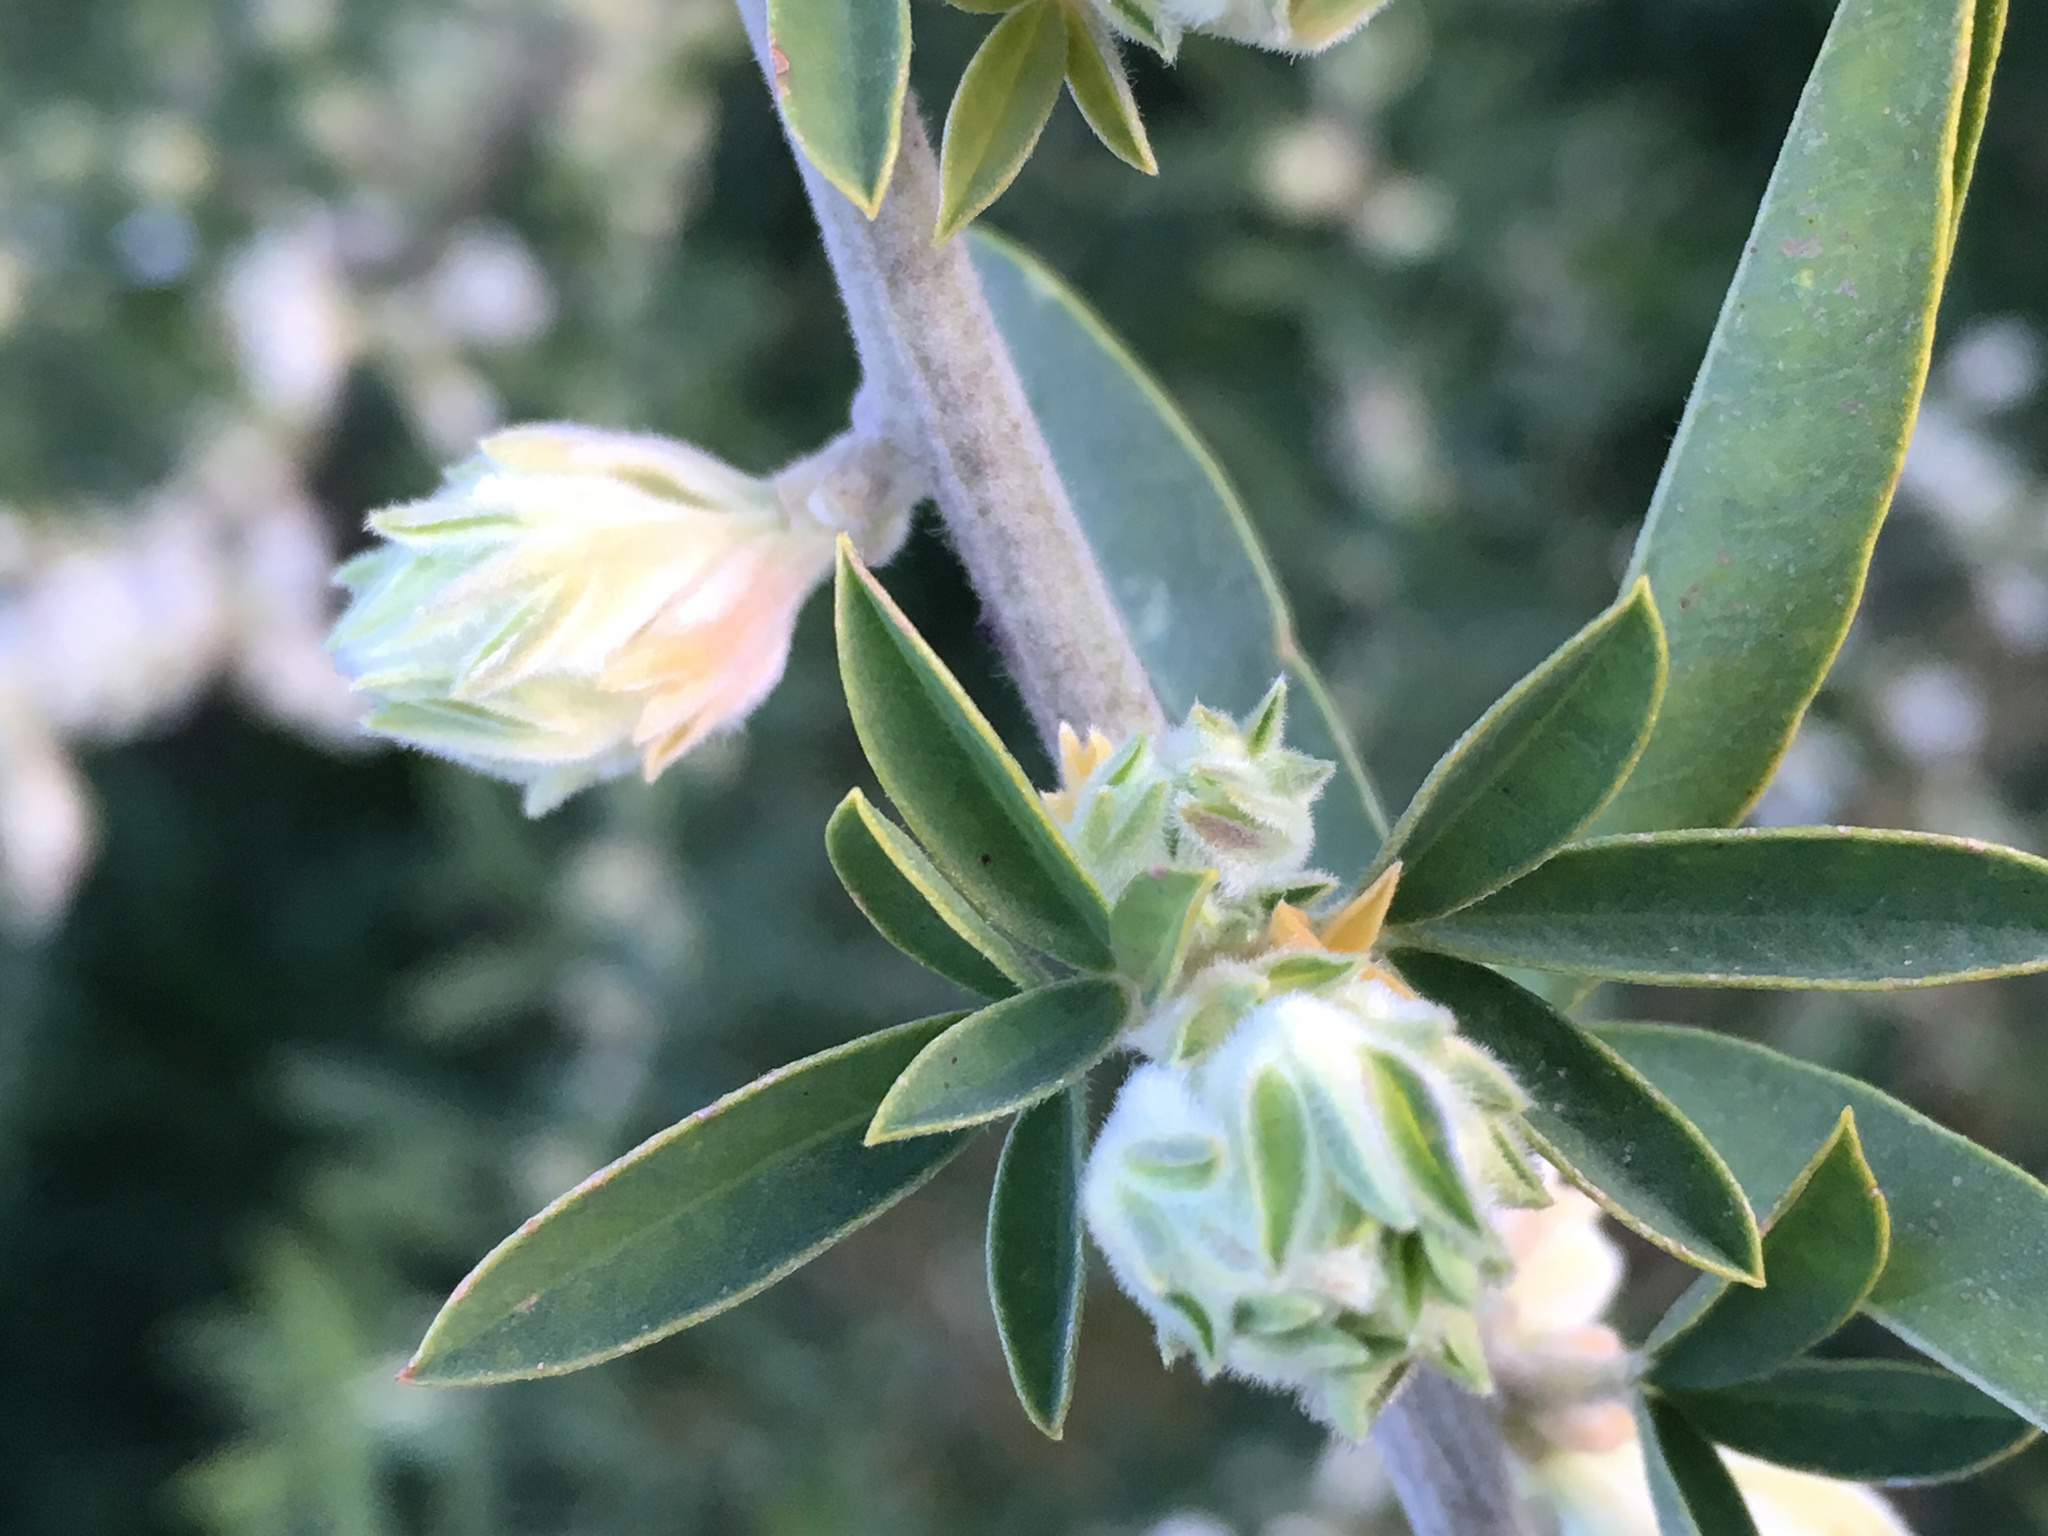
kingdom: Plantae
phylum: Tracheophyta
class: Magnoliopsida
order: Fabales
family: Fabaceae
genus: Chamaecytisus
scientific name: Chamaecytisus prolifer
